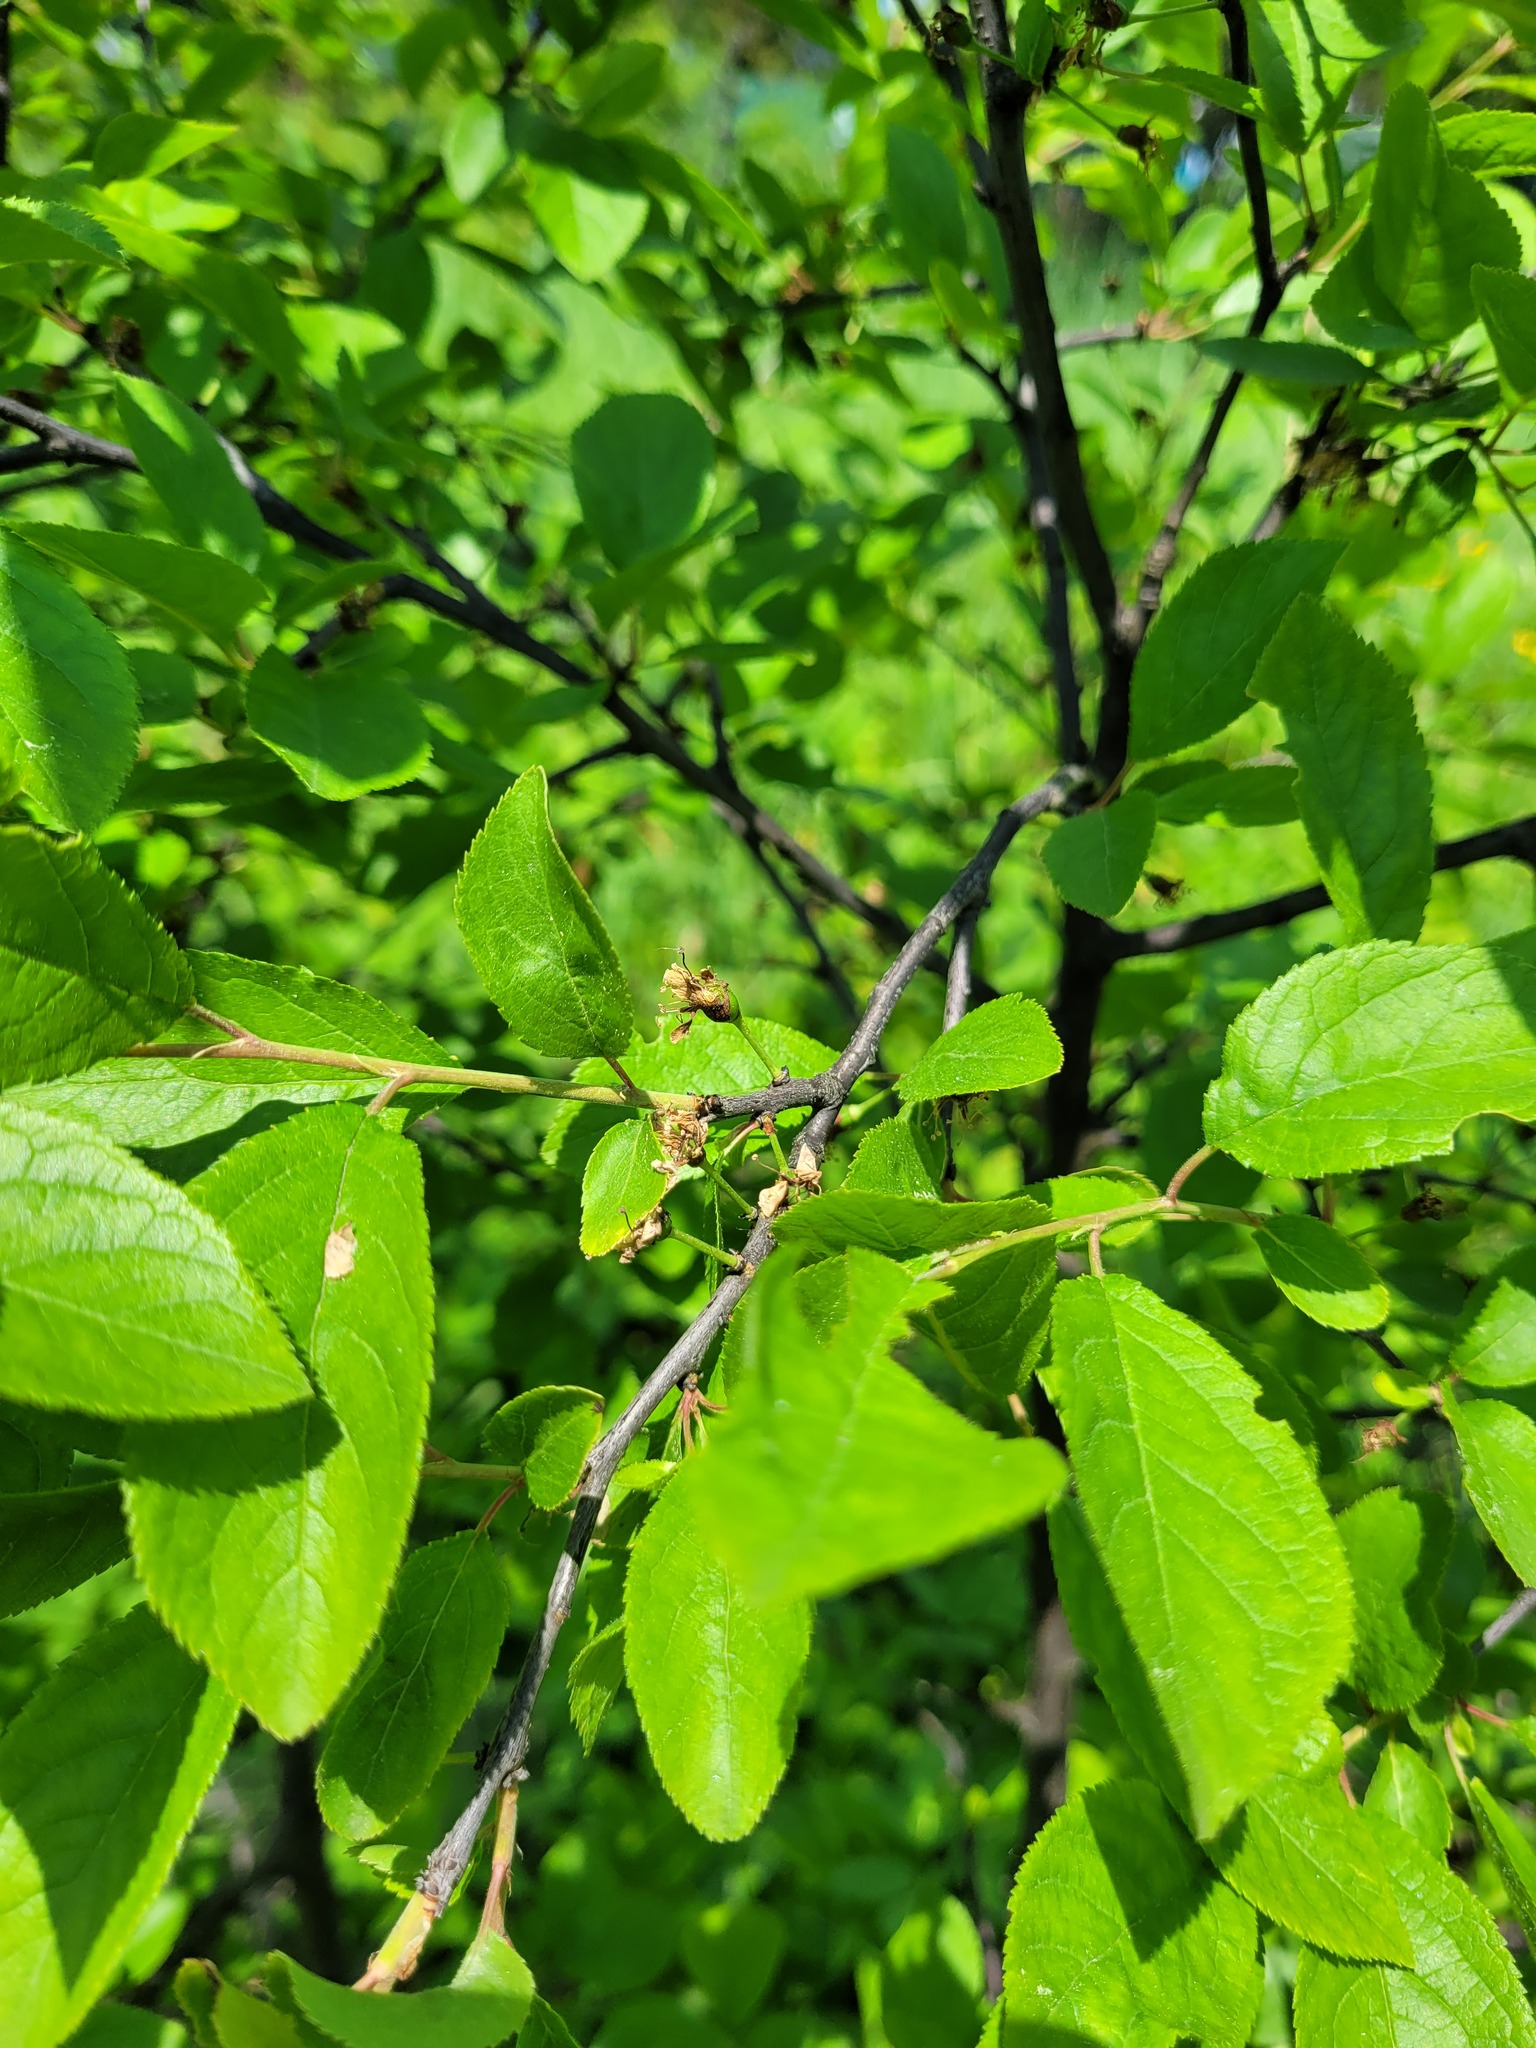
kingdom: Plantae
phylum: Tracheophyta
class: Magnoliopsida
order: Rosales
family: Rosaceae
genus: Prunus
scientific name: Prunus spinosa
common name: Blackthorn
